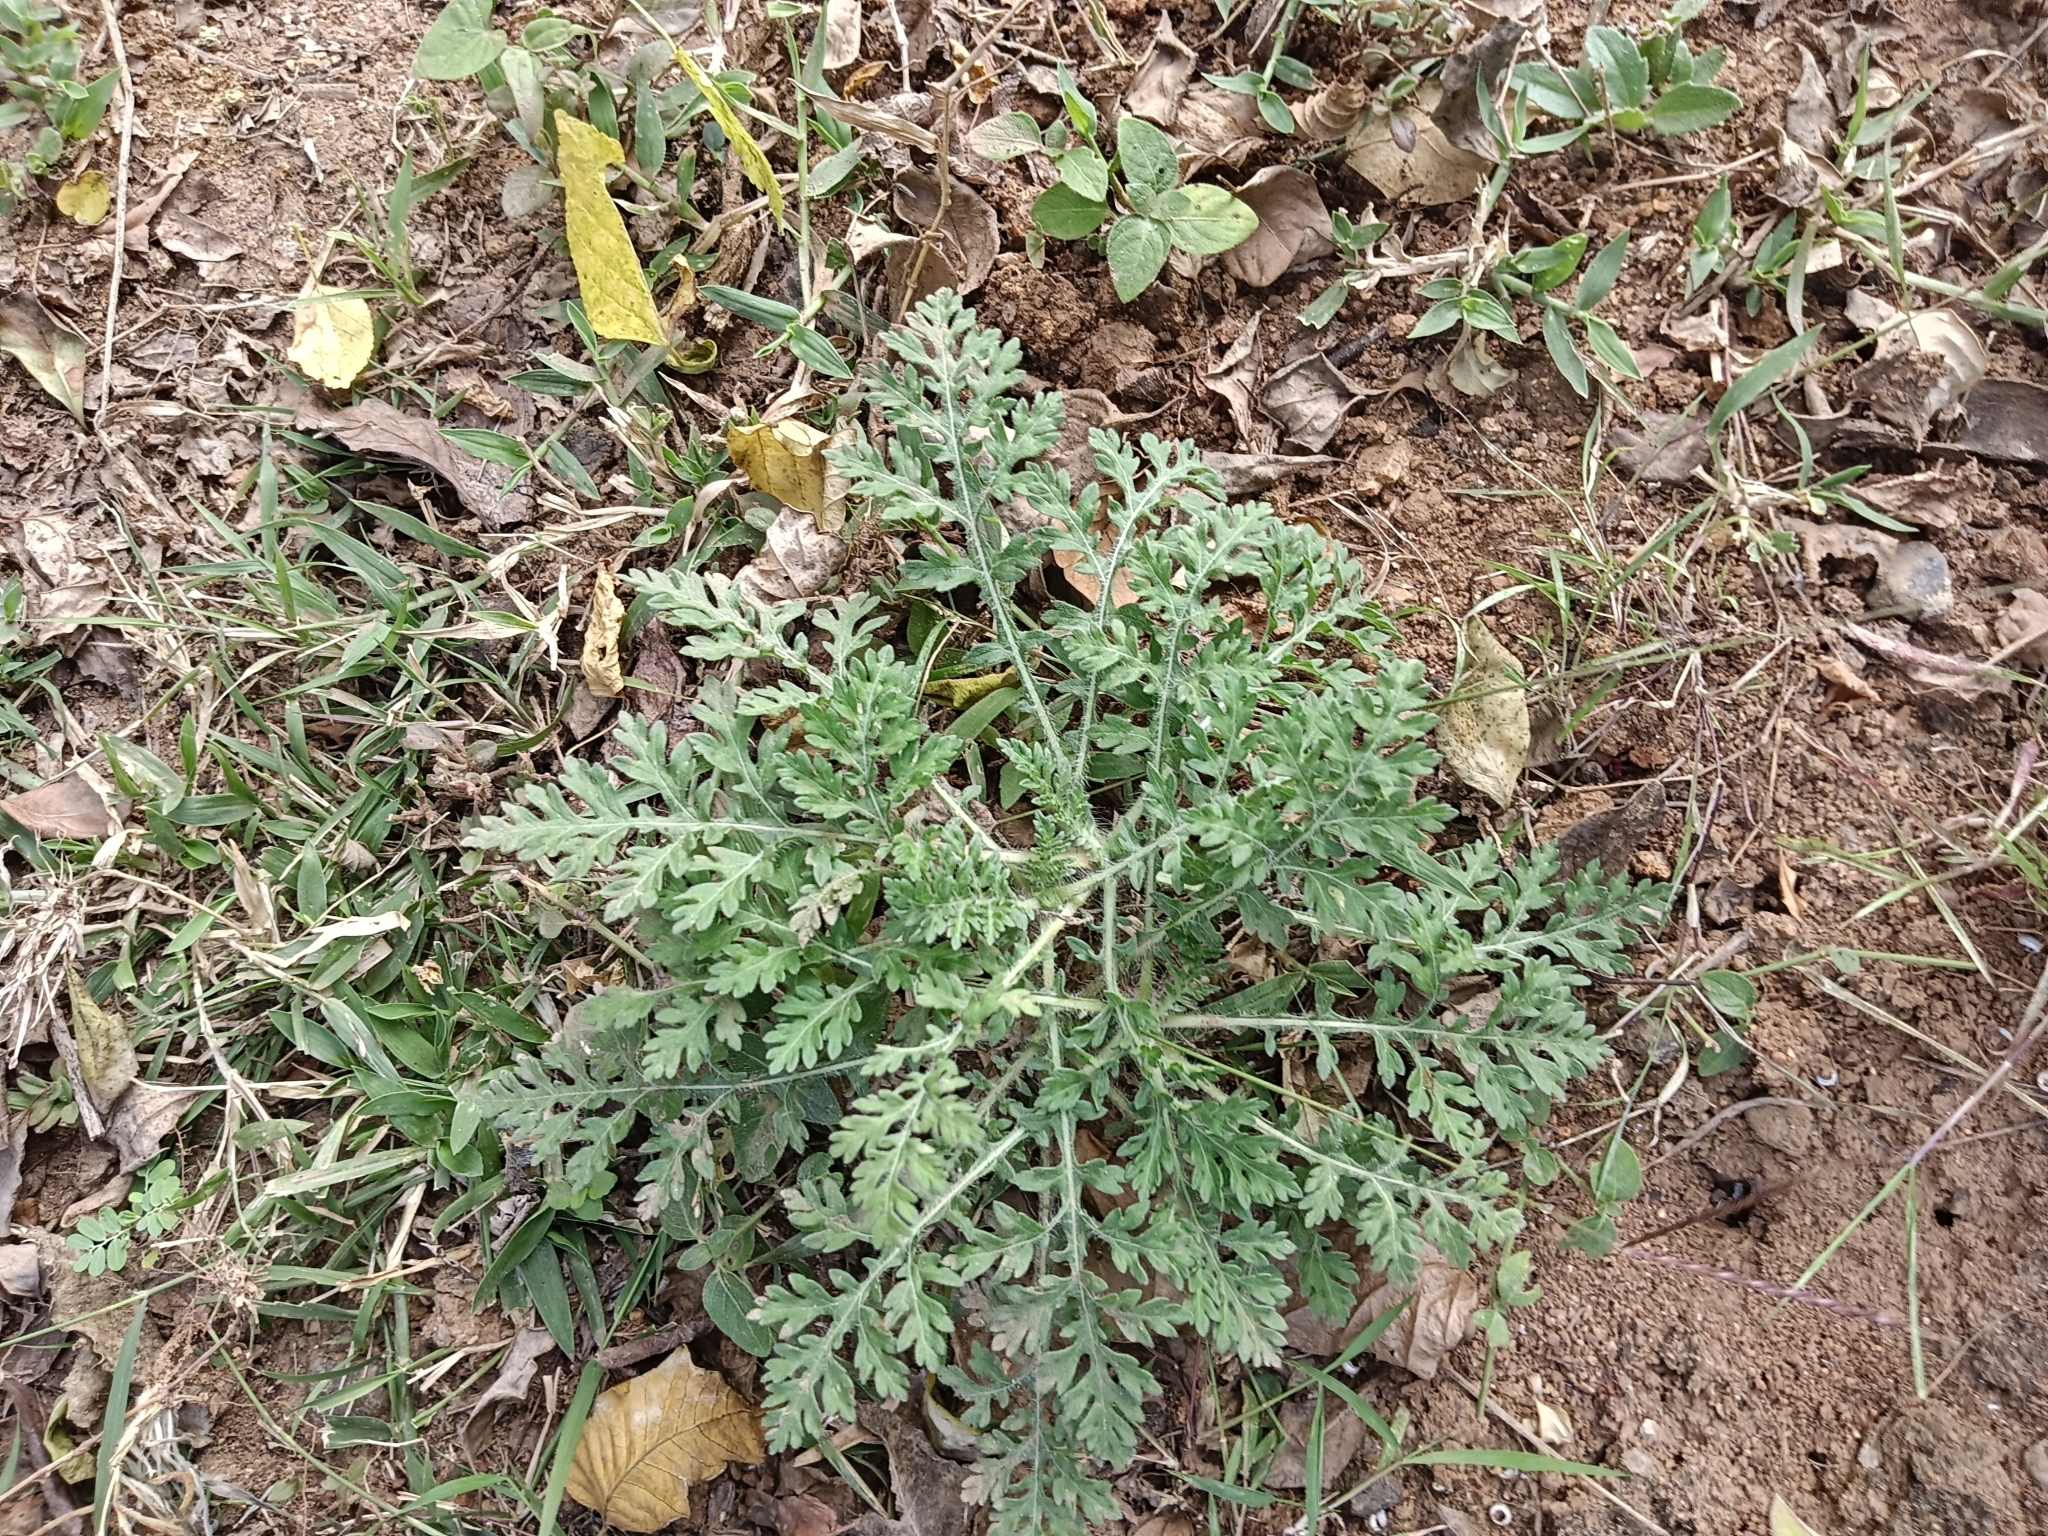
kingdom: Plantae
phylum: Tracheophyta
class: Magnoliopsida
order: Asterales
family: Asteraceae
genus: Parthenium
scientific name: Parthenium hysterophorus
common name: Santa maria feverfew
